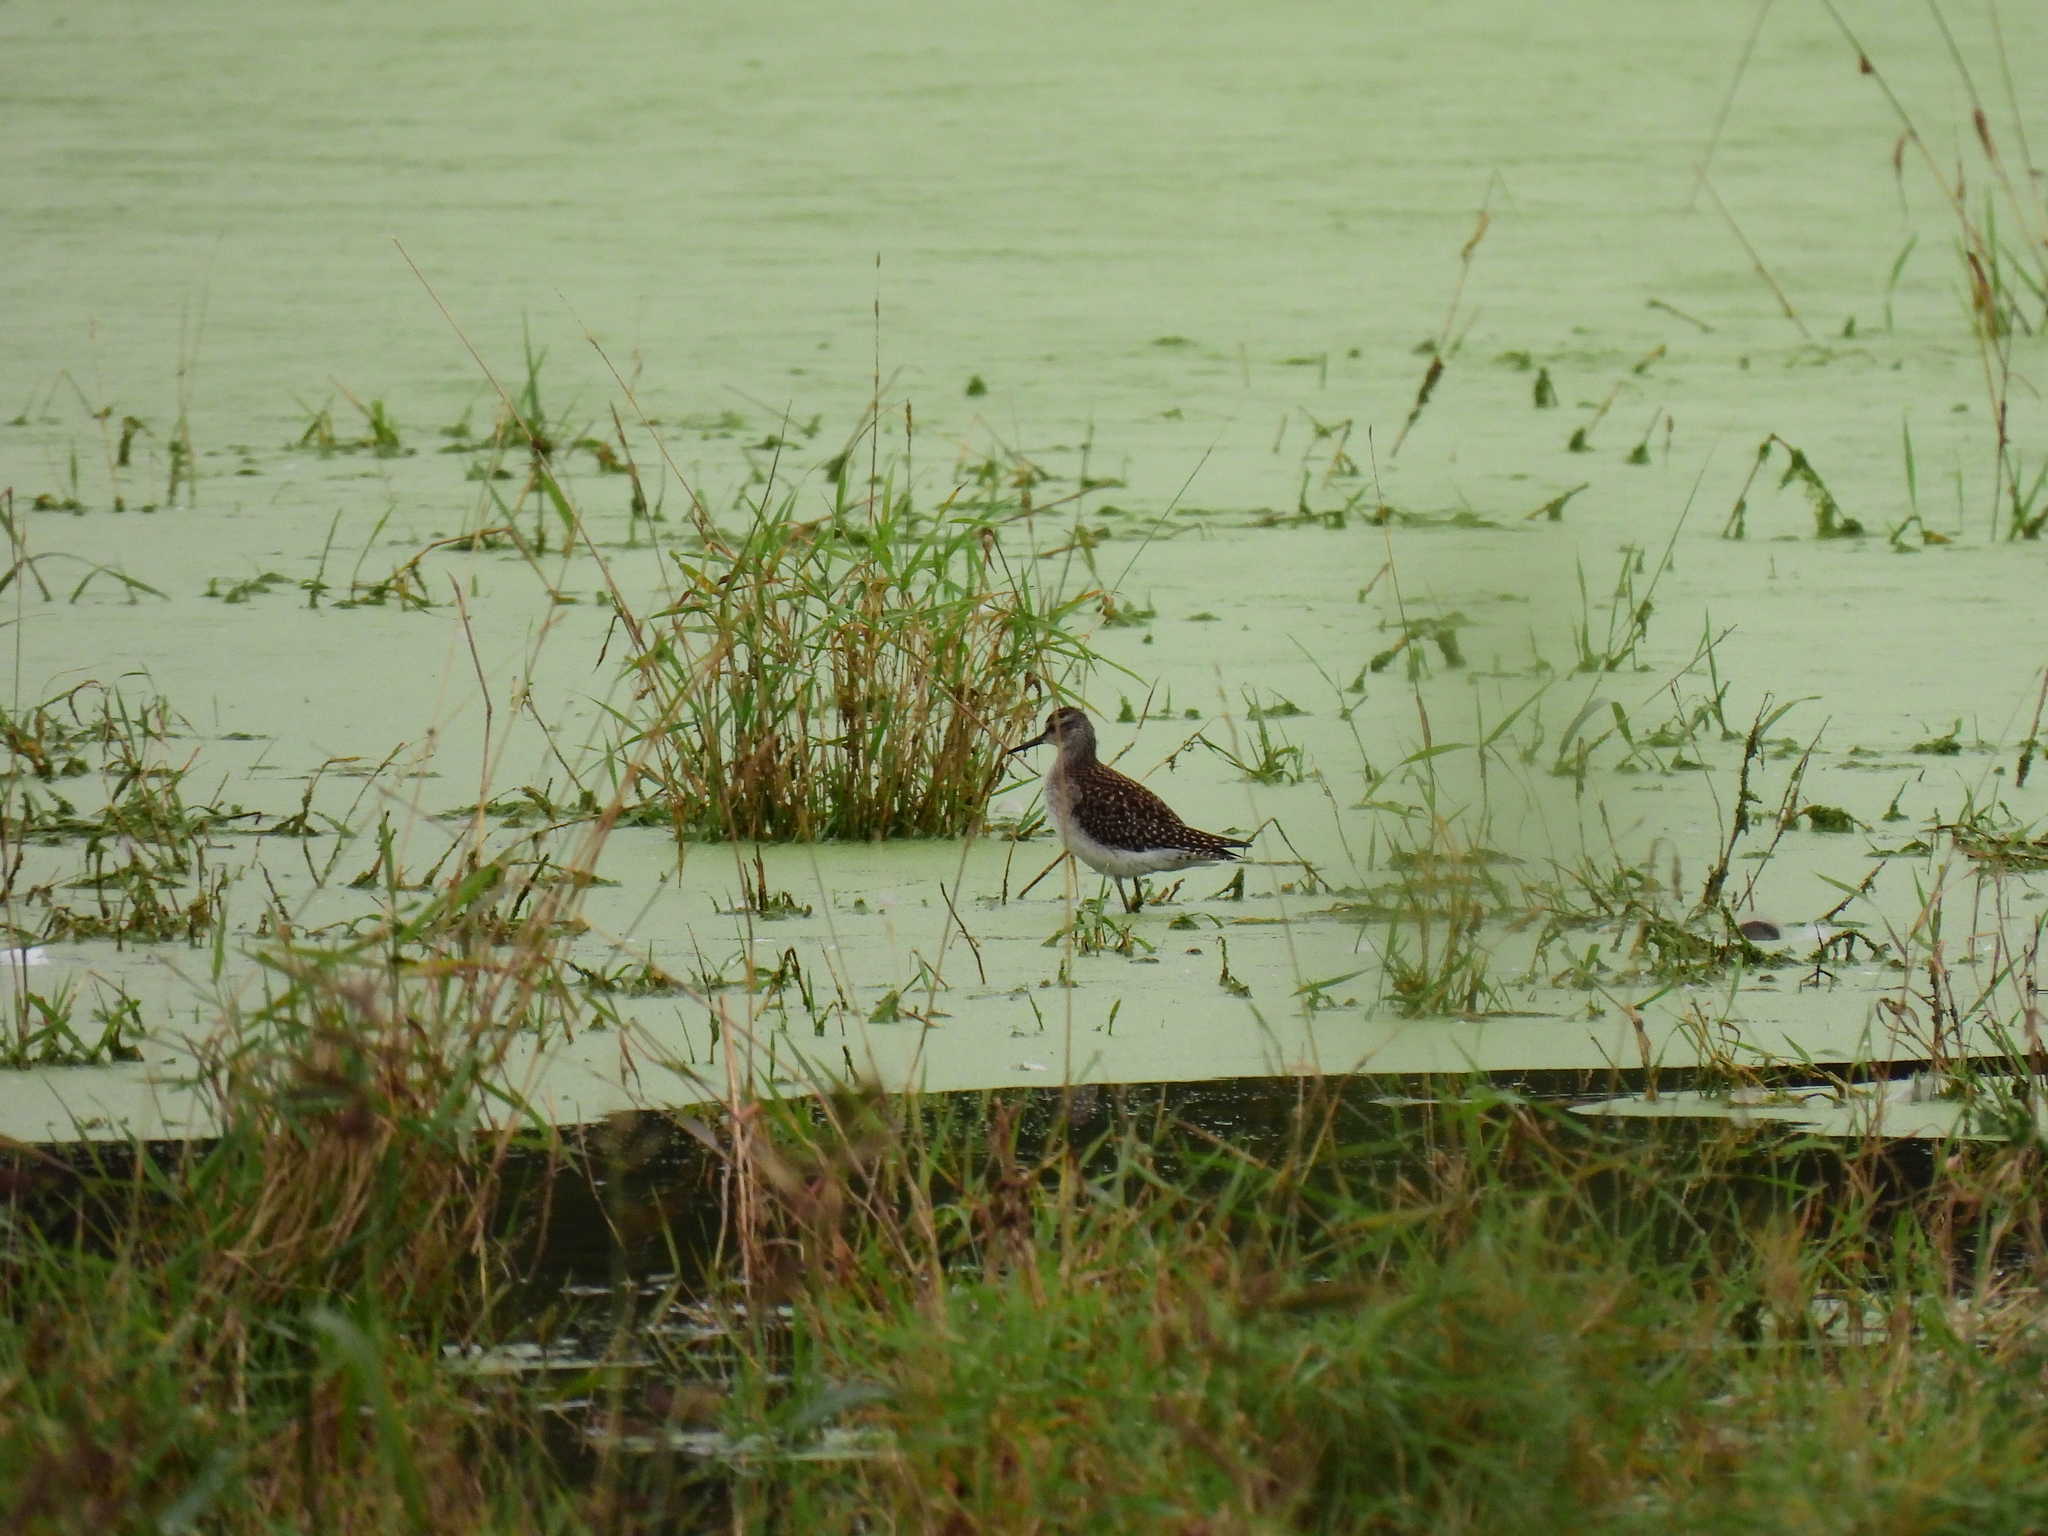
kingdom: Animalia
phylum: Chordata
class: Aves
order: Charadriiformes
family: Scolopacidae
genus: Tringa
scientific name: Tringa glareola
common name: Wood sandpiper
